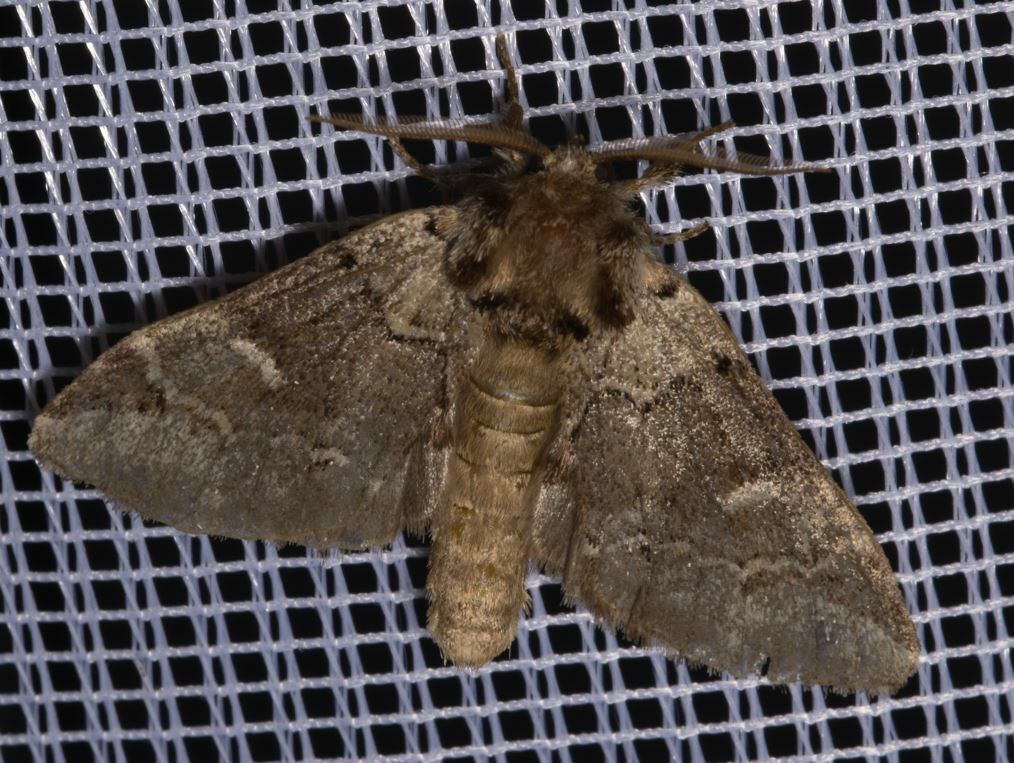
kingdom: Animalia
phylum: Arthropoda
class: Insecta
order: Lepidoptera
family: Notodontidae
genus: Drymonia
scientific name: Drymonia obliterata
